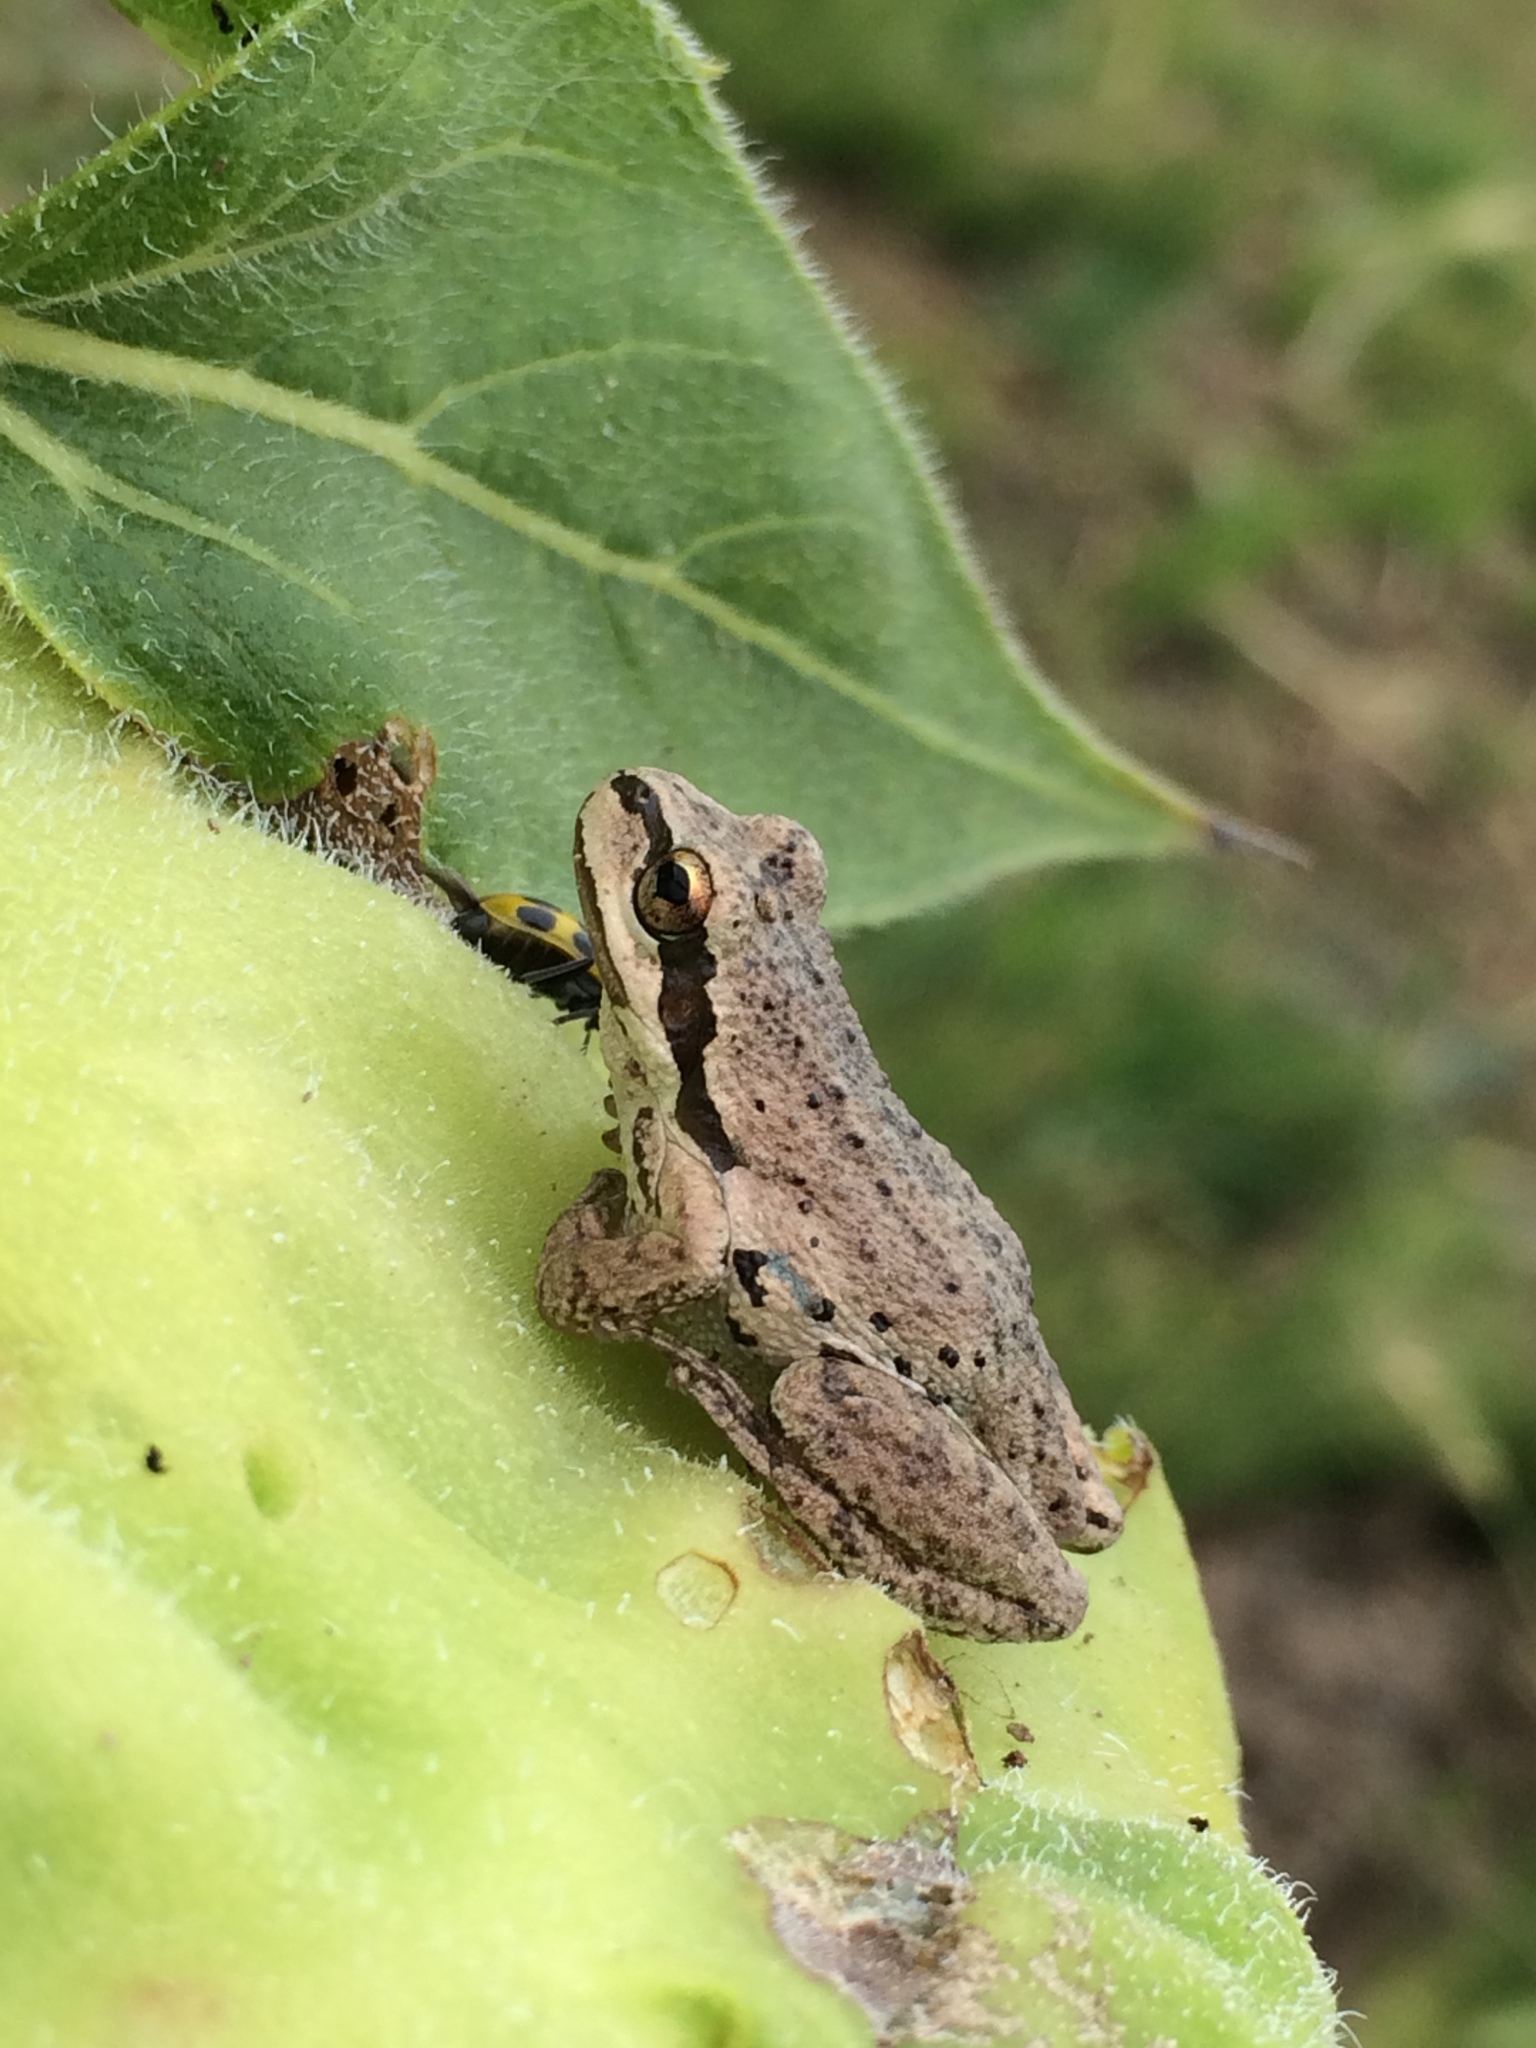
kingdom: Animalia
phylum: Chordata
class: Amphibia
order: Anura
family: Hylidae
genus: Pseudacris
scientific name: Pseudacris regilla
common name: Pacific chorus frog
